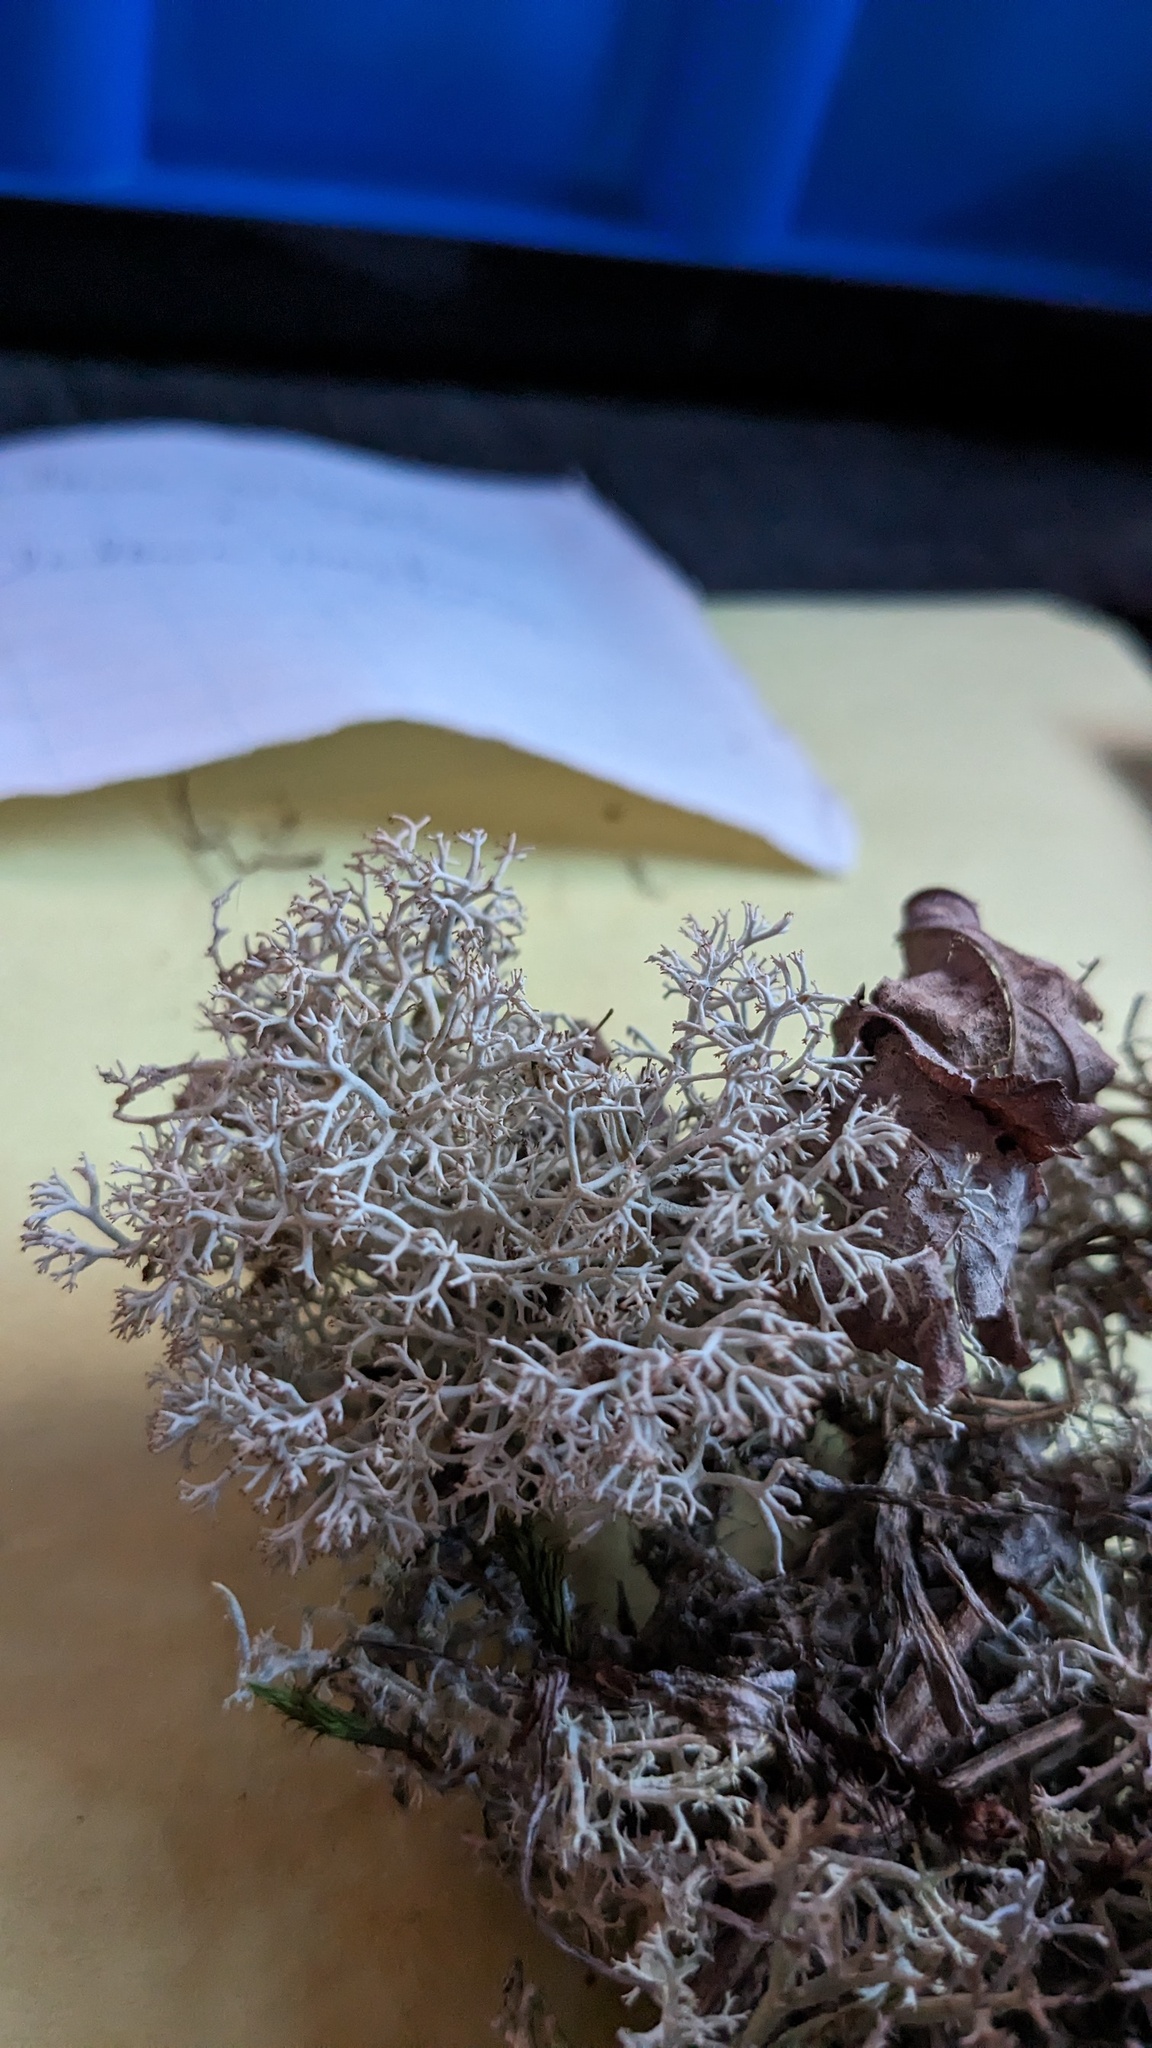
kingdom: Fungi
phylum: Ascomycota
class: Lecanoromycetes
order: Lecanorales
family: Cladoniaceae
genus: Cladonia
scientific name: Cladonia rangiferina
